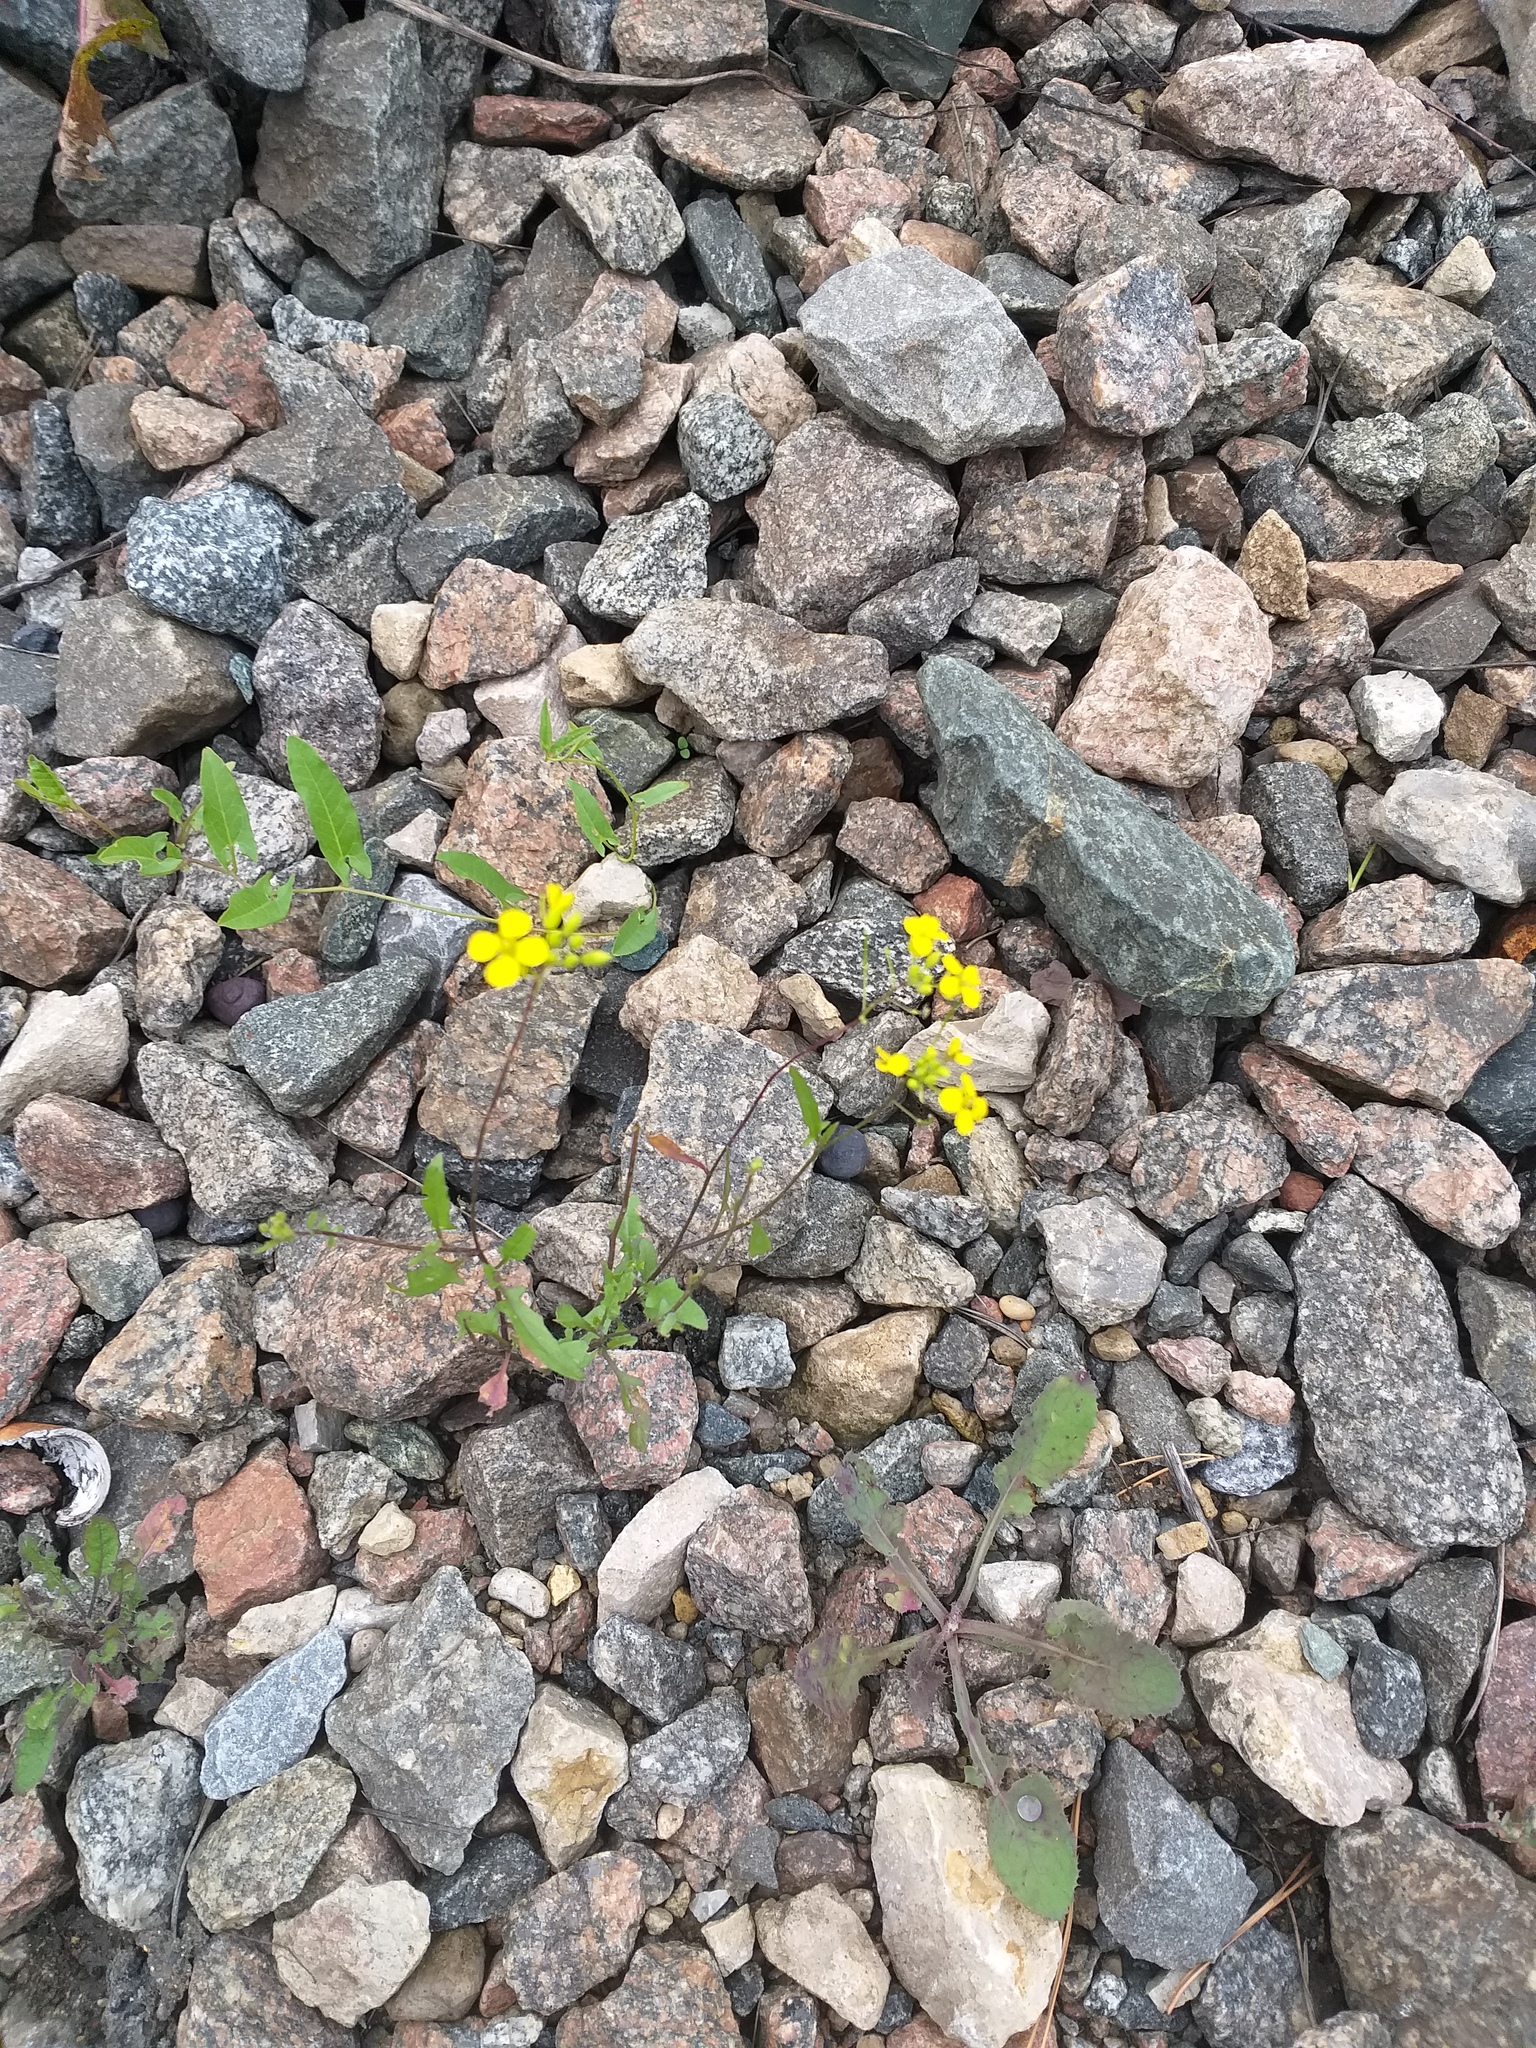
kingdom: Plantae
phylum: Tracheophyta
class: Magnoliopsida
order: Brassicales
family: Brassicaceae
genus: Sisymbrium
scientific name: Sisymbrium loeselii
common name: False london-rocket
